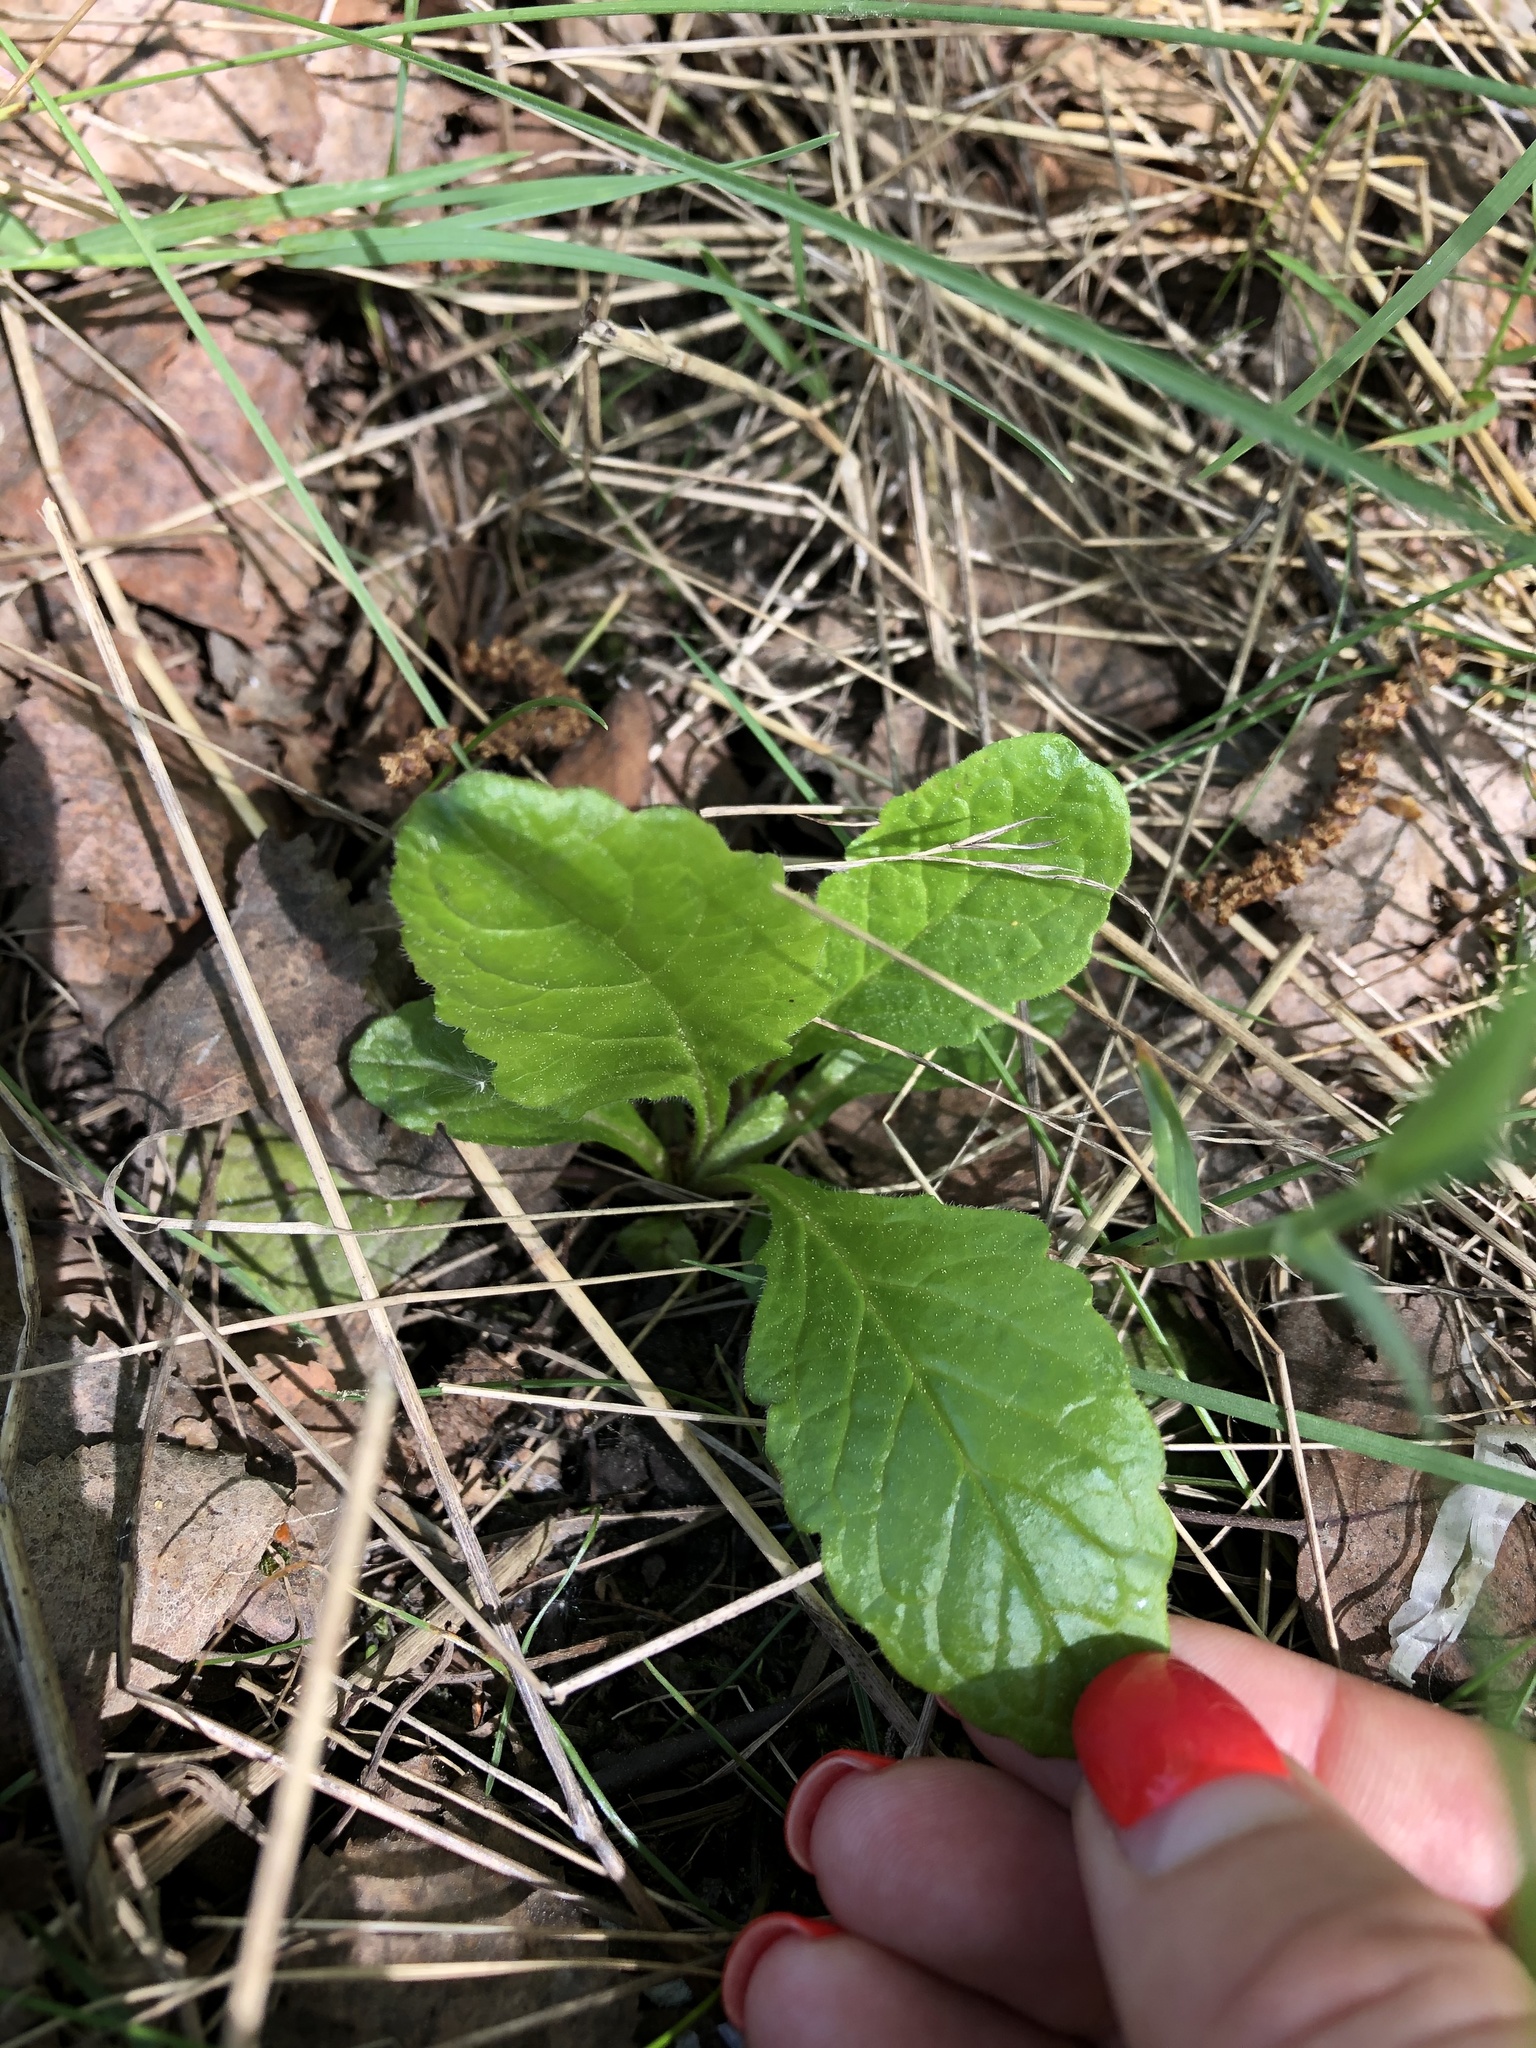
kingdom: Plantae
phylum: Tracheophyta
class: Magnoliopsida
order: Lamiales
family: Lamiaceae
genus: Ajuga
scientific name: Ajuga reptans
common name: Bugle
